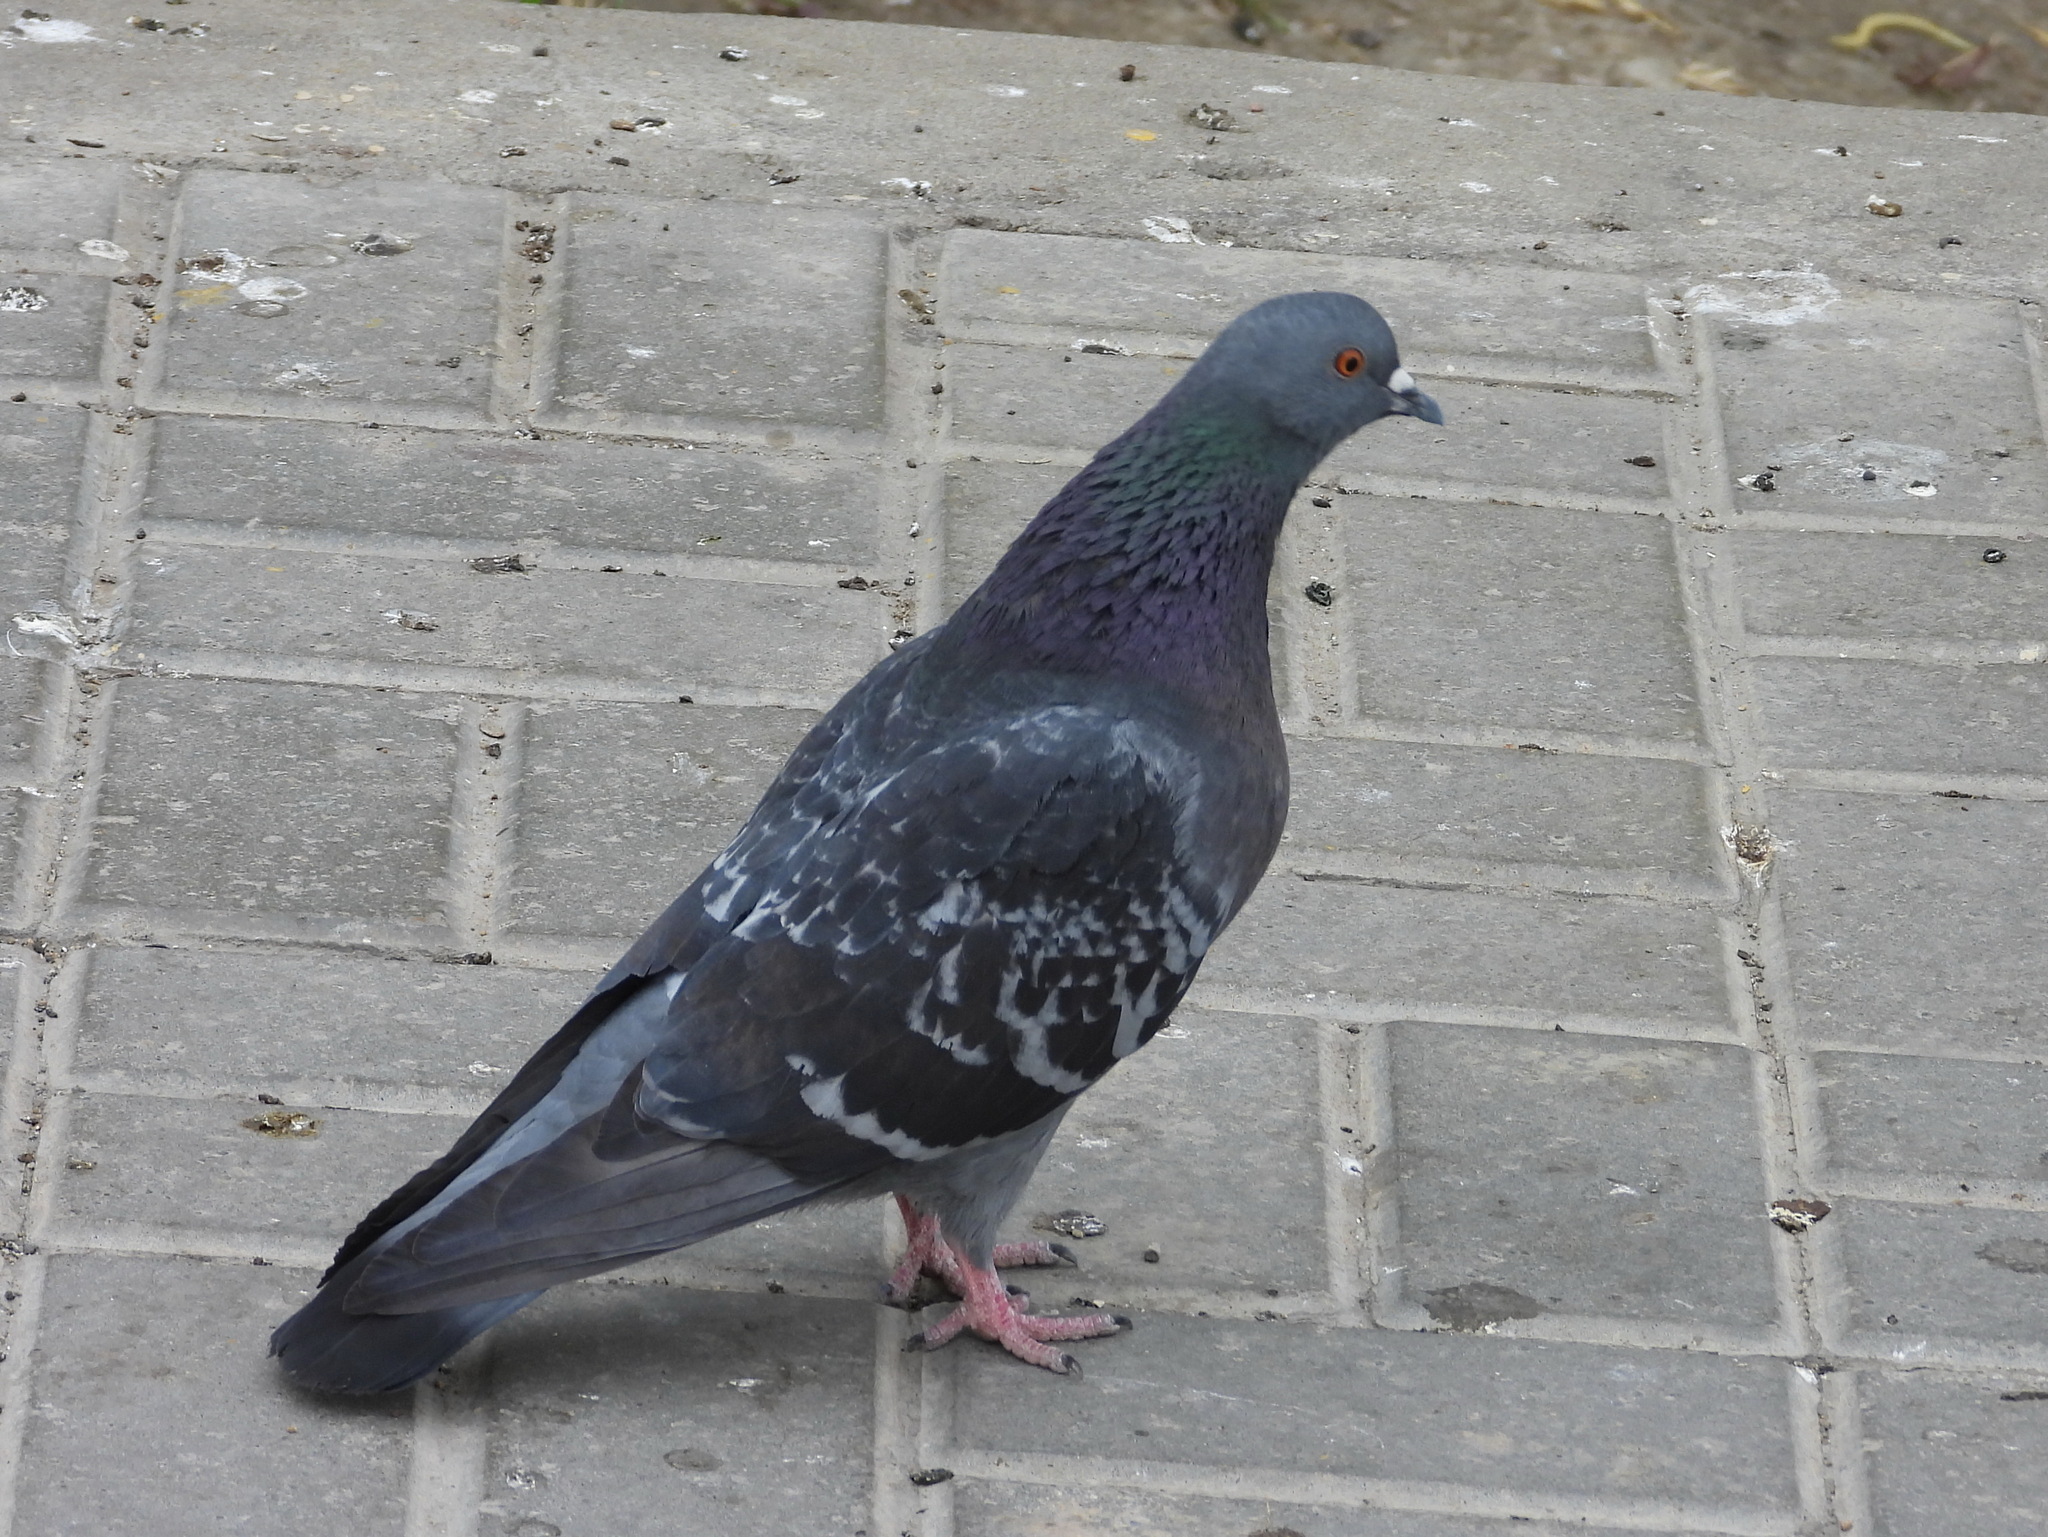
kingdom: Animalia
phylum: Chordata
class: Aves
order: Columbiformes
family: Columbidae
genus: Columba
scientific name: Columba livia
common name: Rock pigeon
